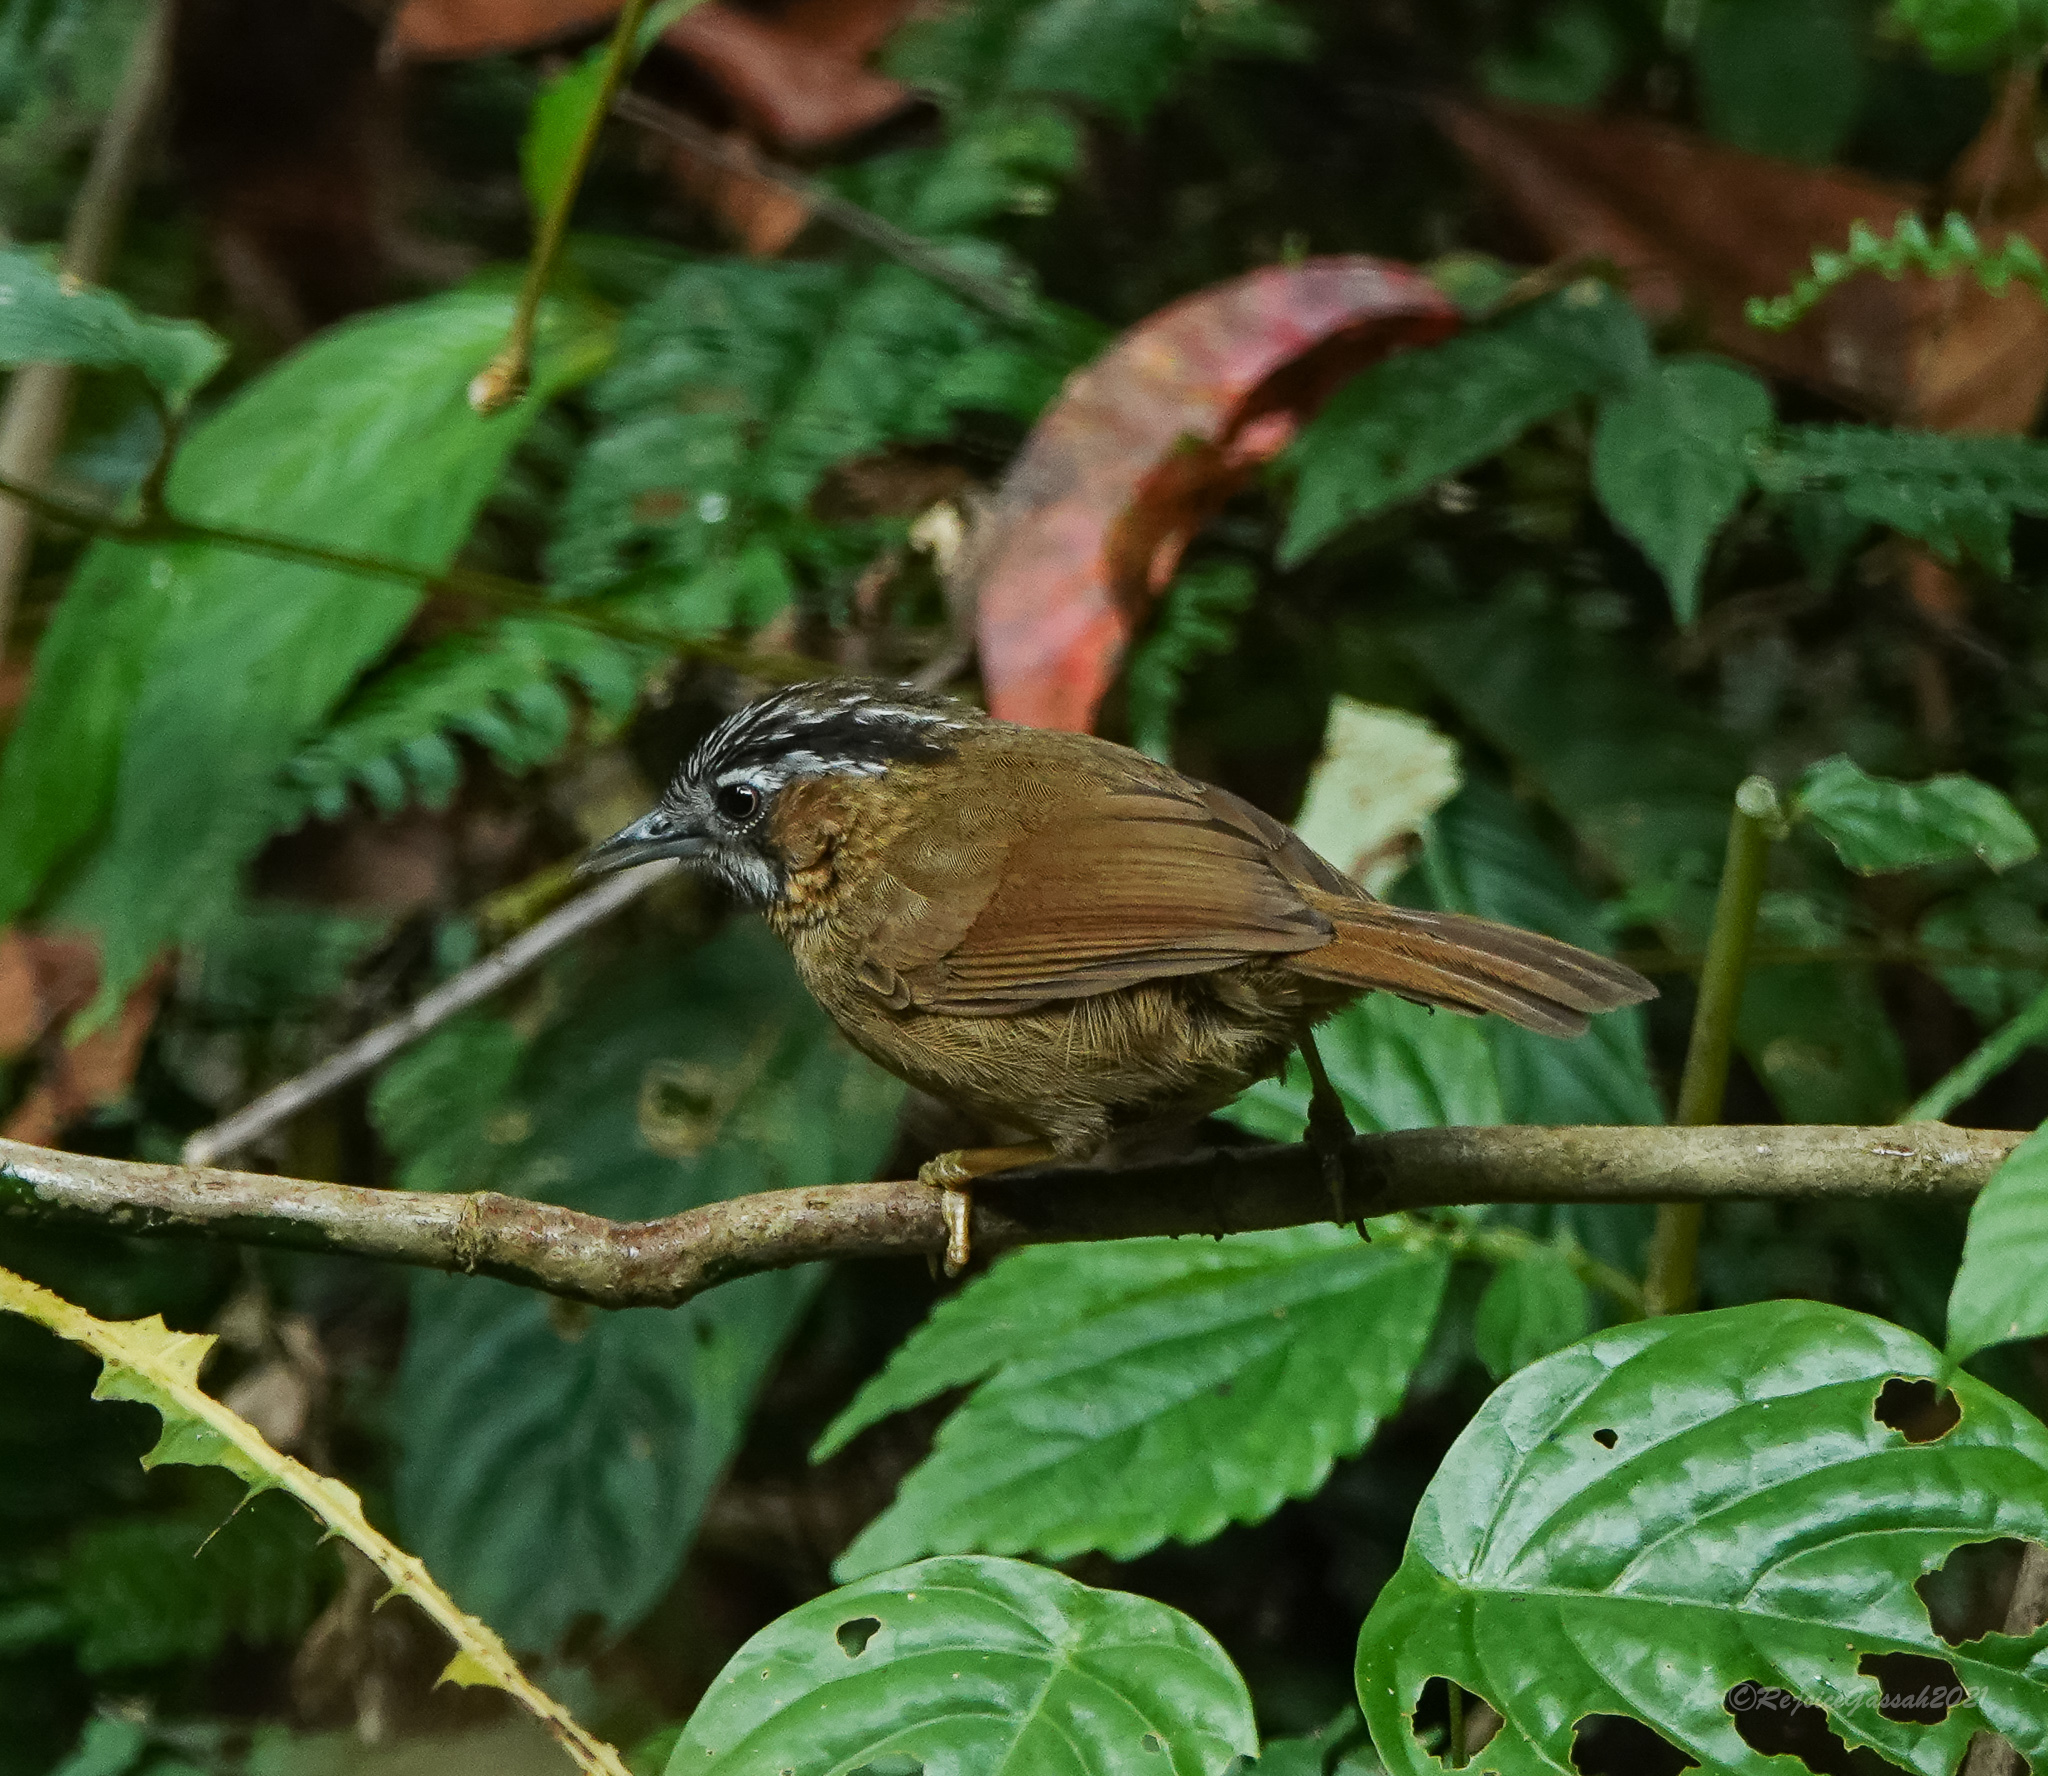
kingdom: Animalia
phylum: Chordata
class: Aves
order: Passeriformes
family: Timaliidae
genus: Stachyris
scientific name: Stachyris nigriceps
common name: Grey-throated babbler
